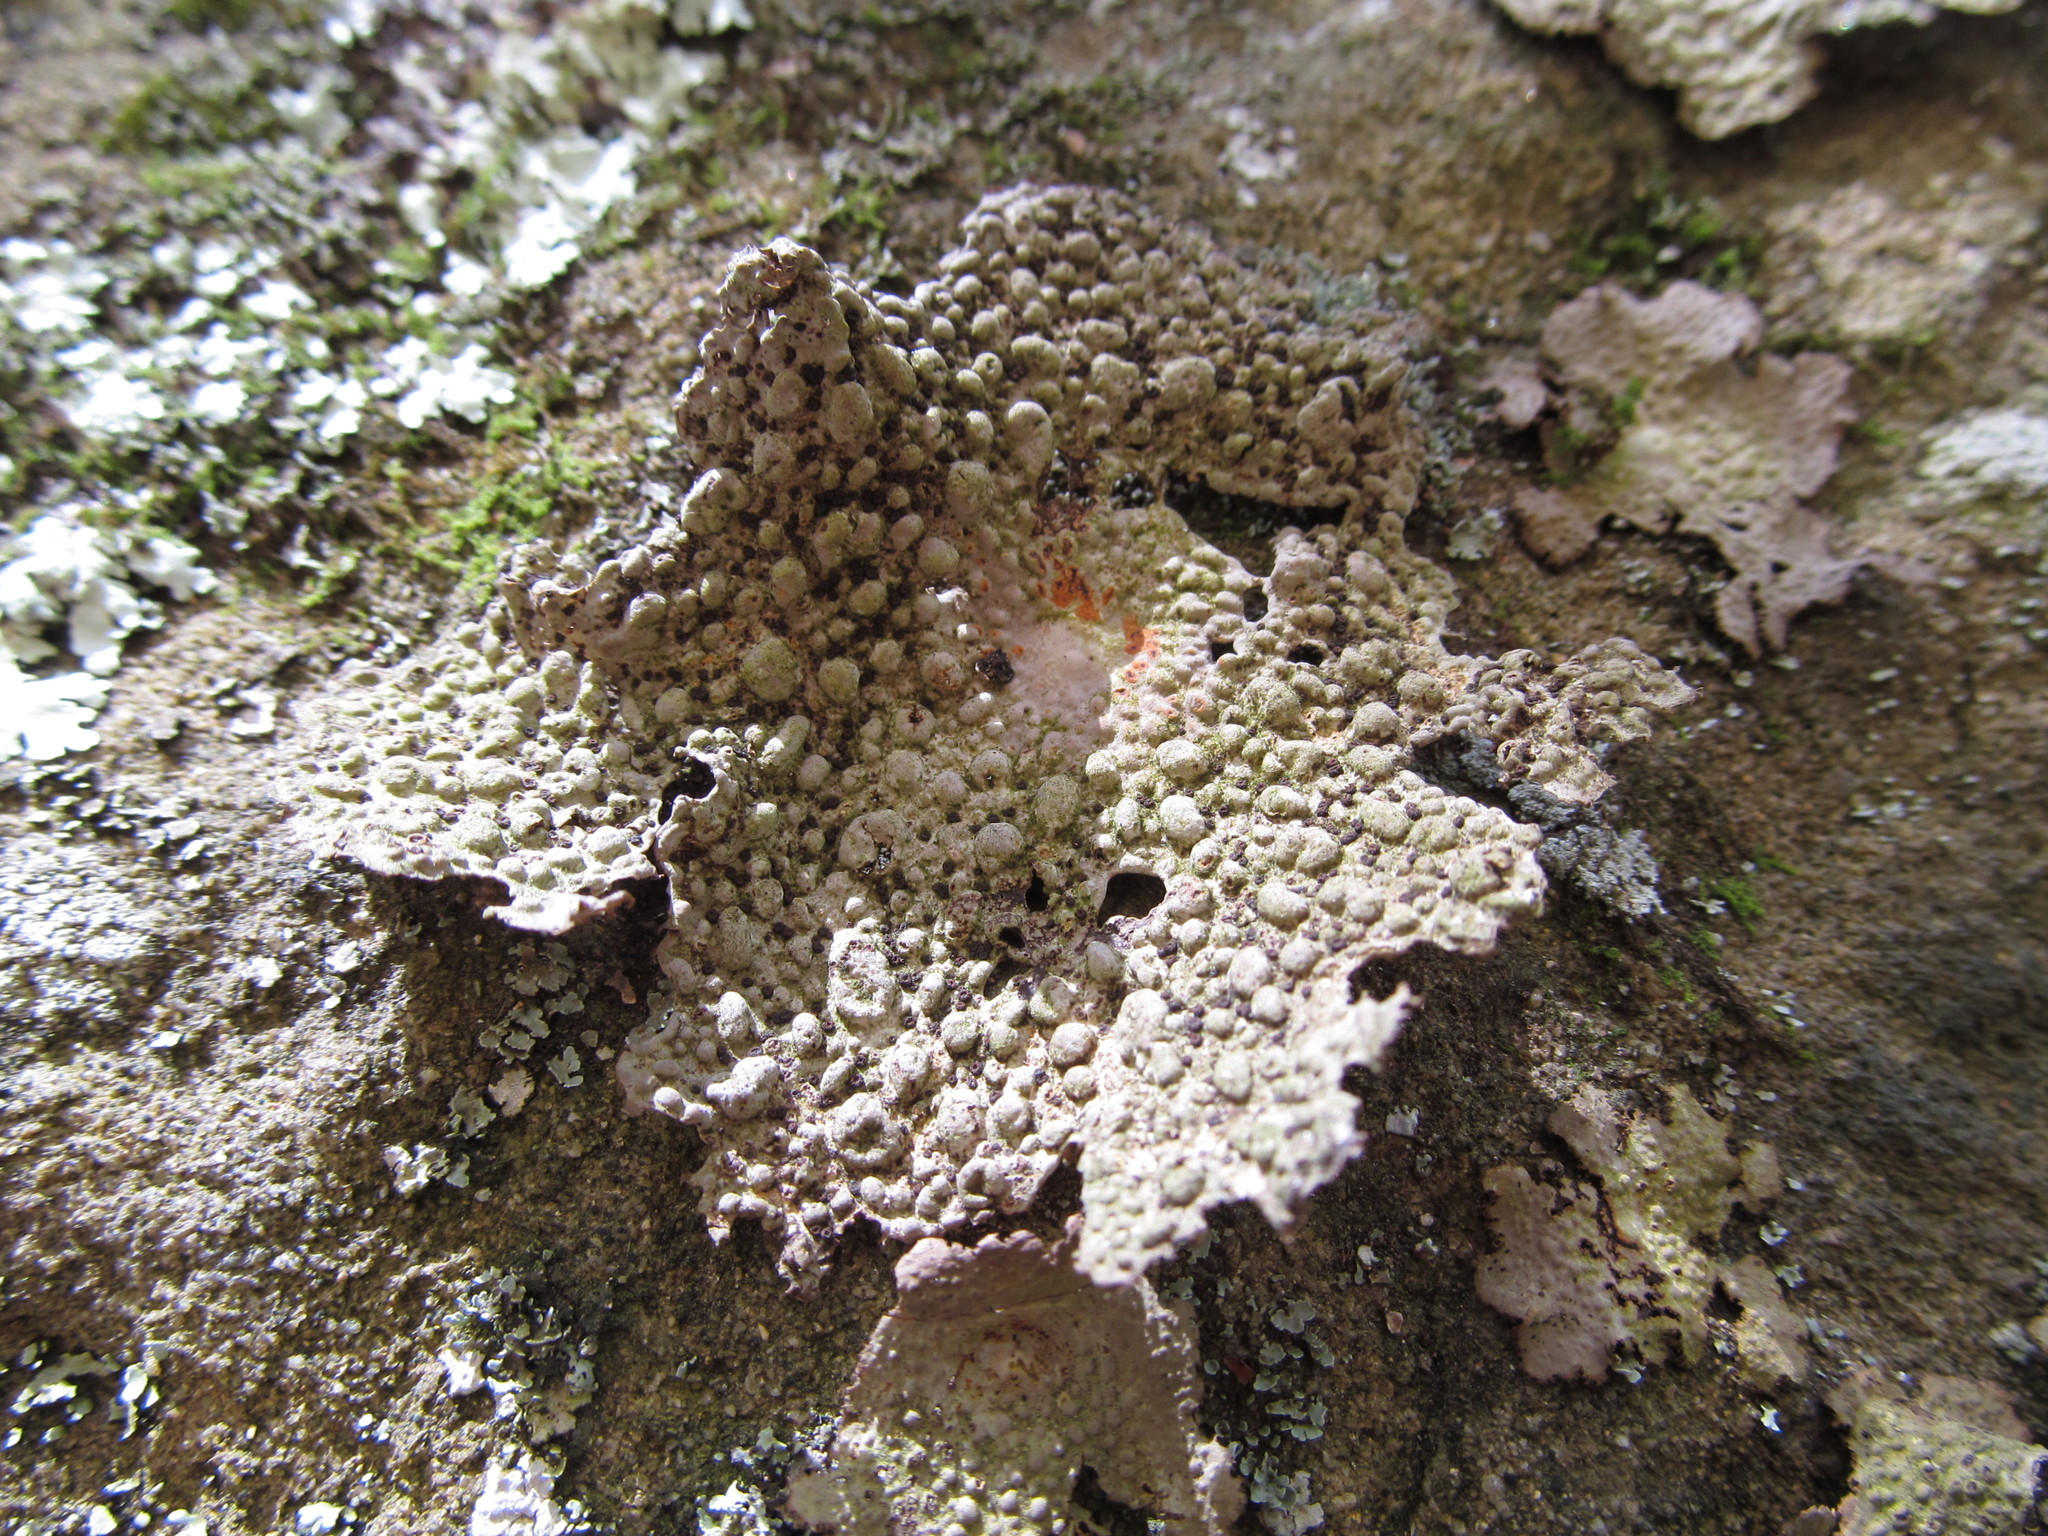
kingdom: Fungi
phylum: Ascomycota
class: Lecanoromycetes
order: Umbilicariales
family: Umbilicariaceae
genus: Lasallia
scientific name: Lasallia papulosa
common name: Common toadskin lichen
